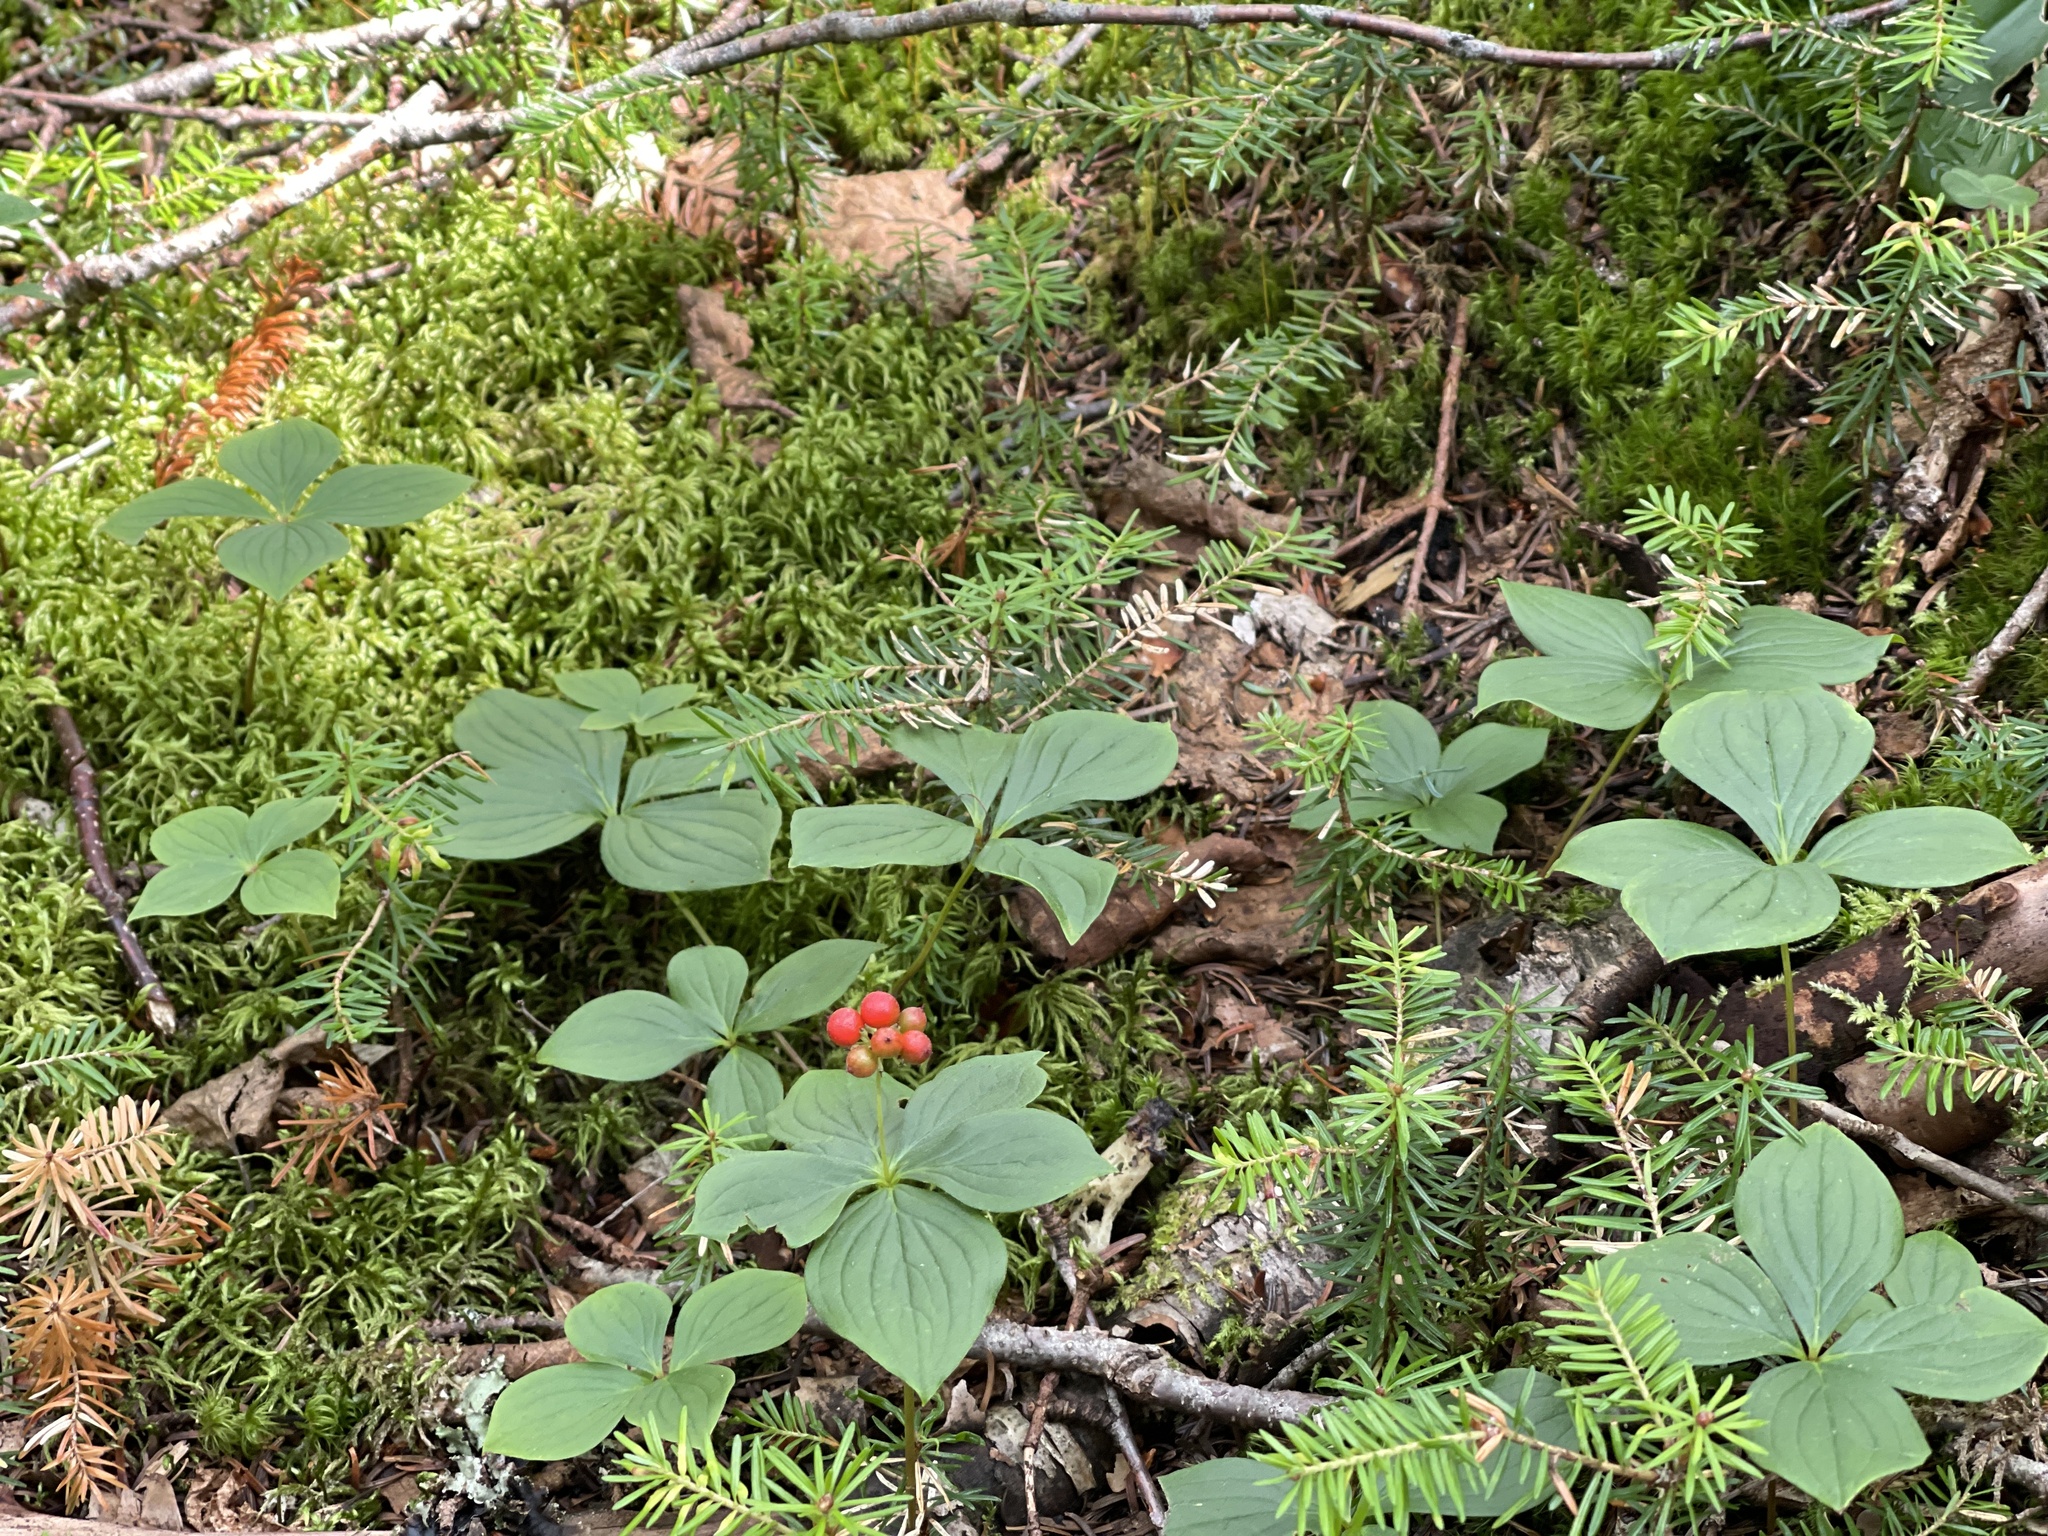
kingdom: Plantae
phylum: Tracheophyta
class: Magnoliopsida
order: Cornales
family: Cornaceae
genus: Cornus
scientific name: Cornus canadensis
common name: Creeping dogwood
